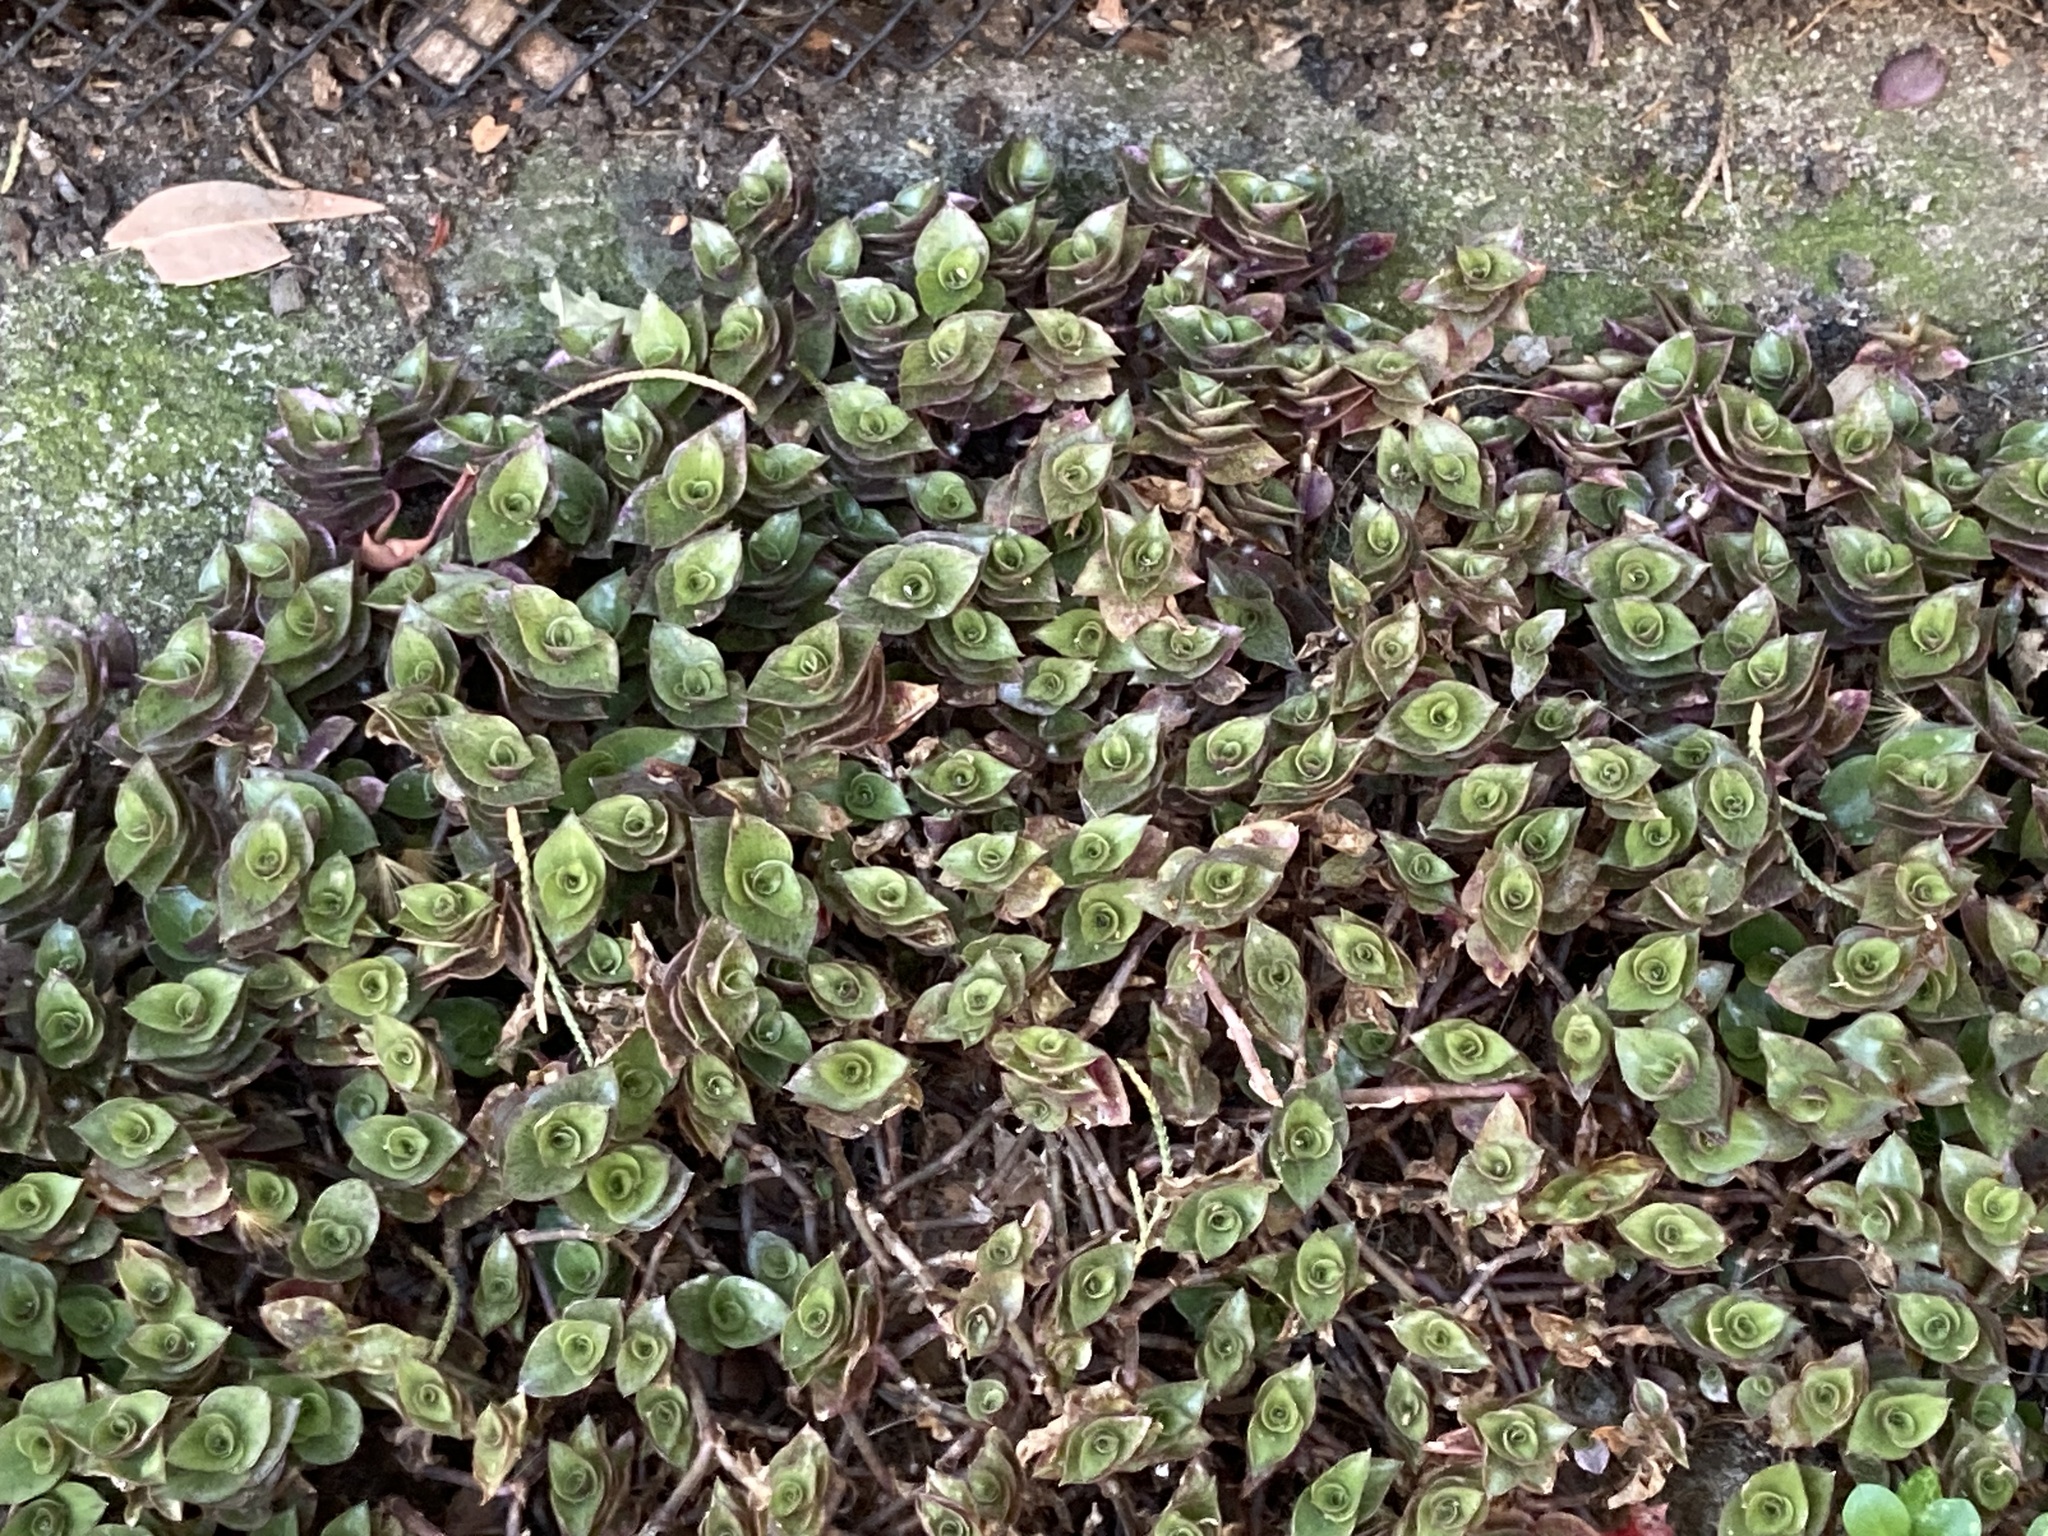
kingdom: Plantae
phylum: Tracheophyta
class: Liliopsida
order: Commelinales
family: Commelinaceae
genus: Callisia
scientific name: Callisia repens
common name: Creeping inchplant
